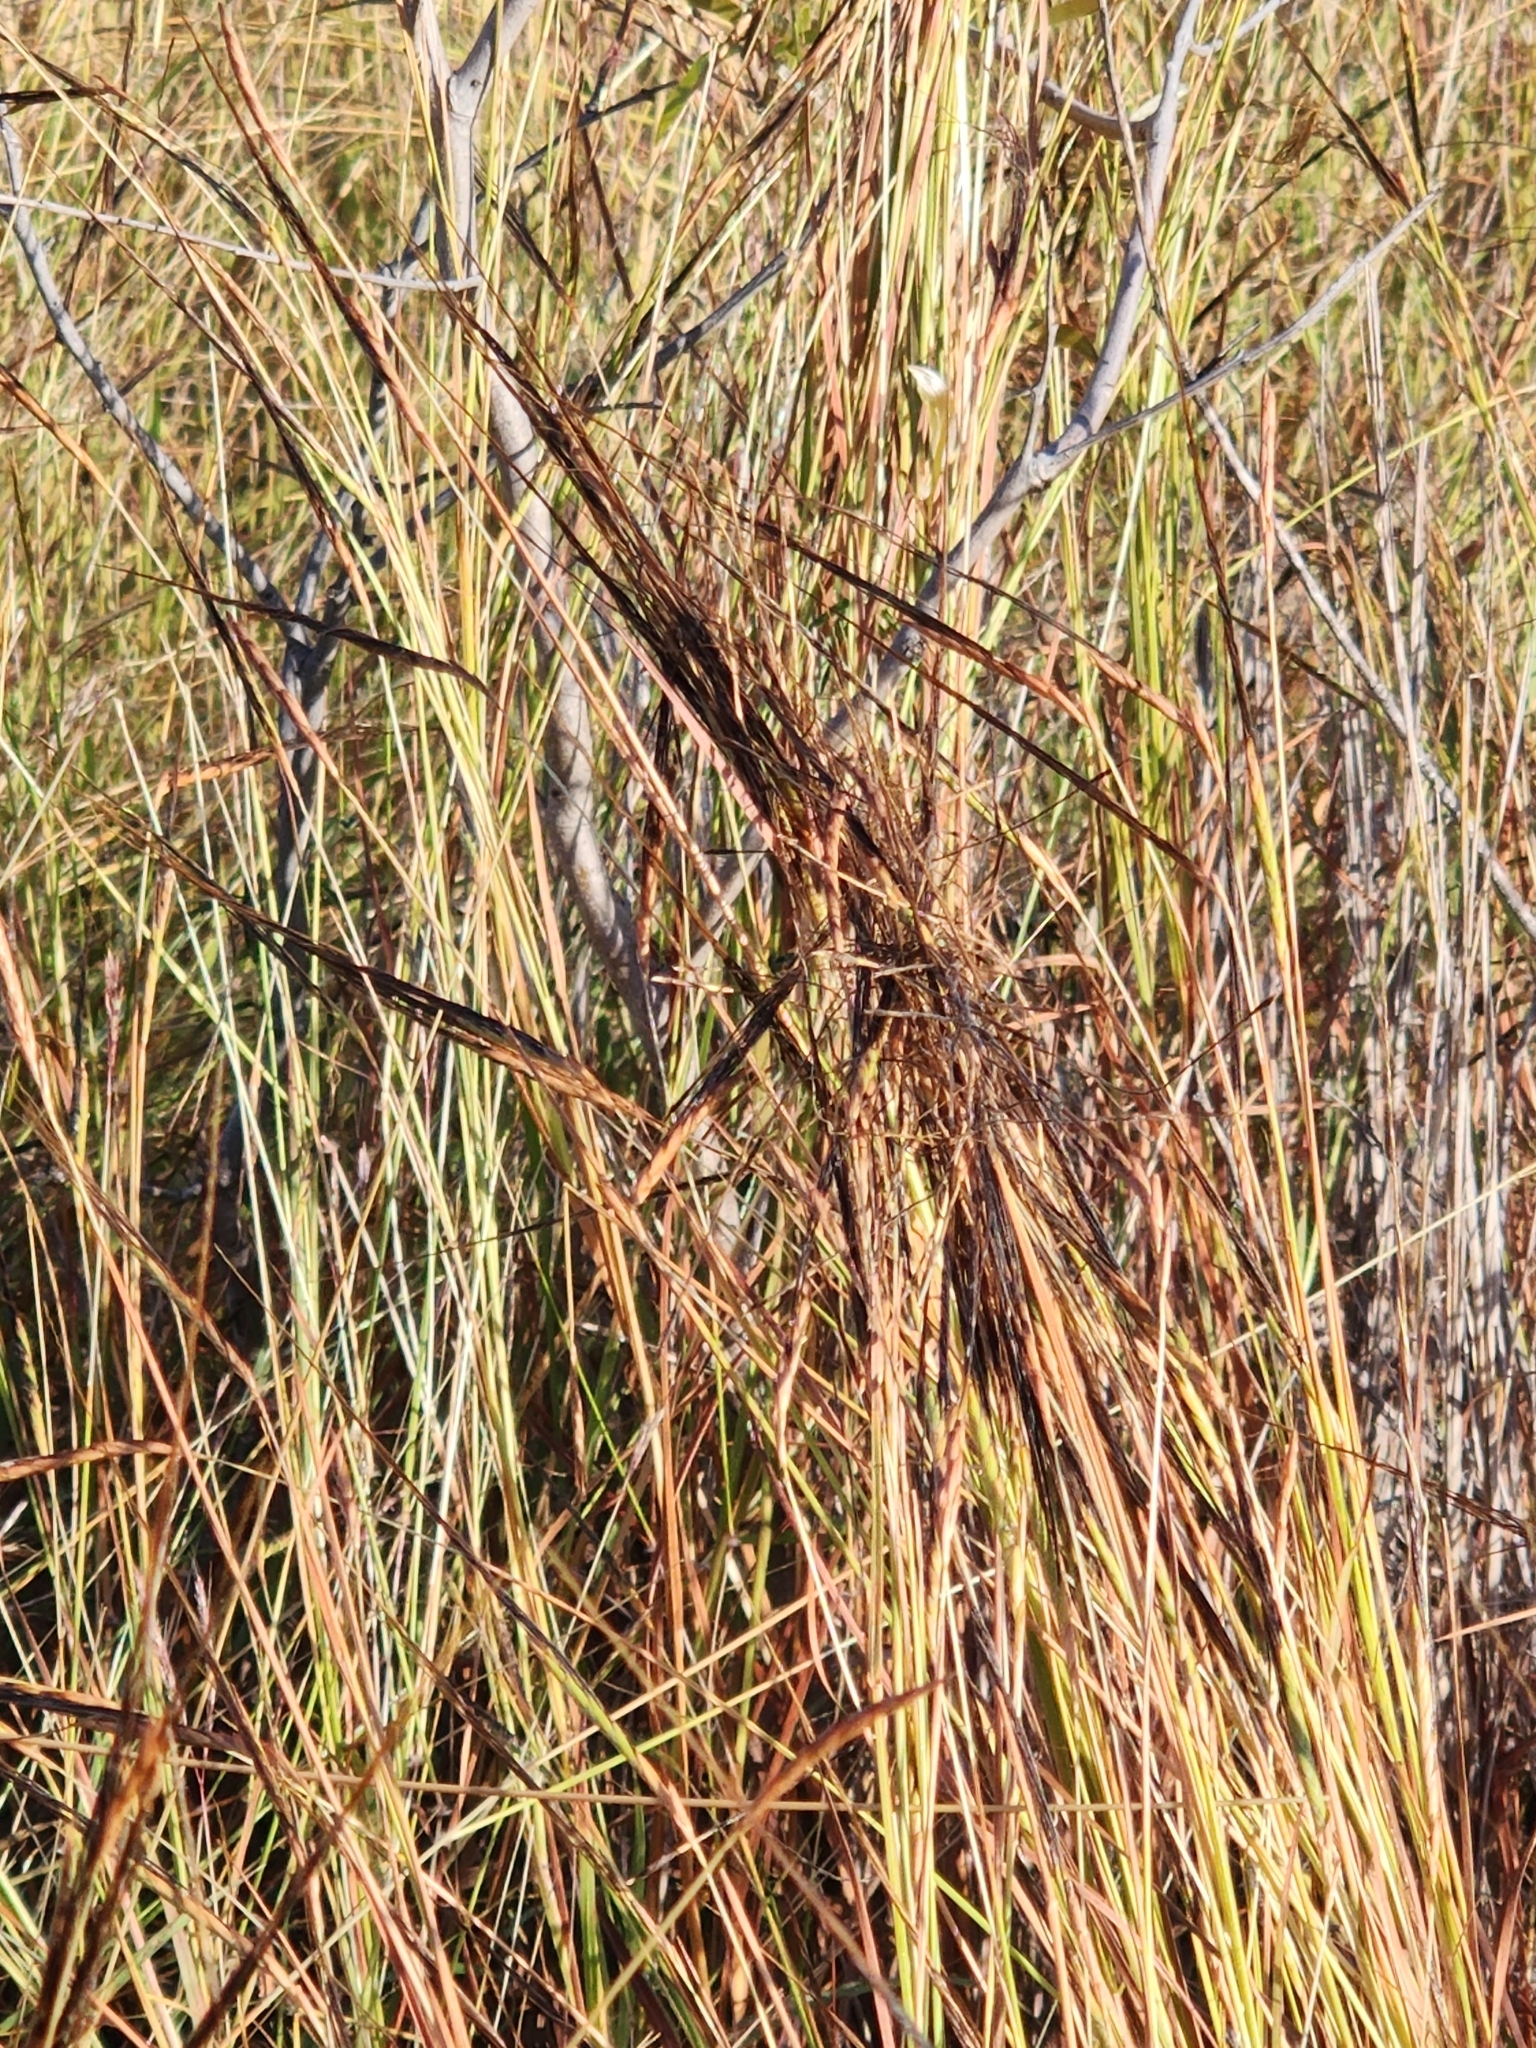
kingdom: Plantae
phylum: Tracheophyta
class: Liliopsida
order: Poales
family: Poaceae
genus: Heteropogon
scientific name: Heteropogon contortus
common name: Tanglehead
